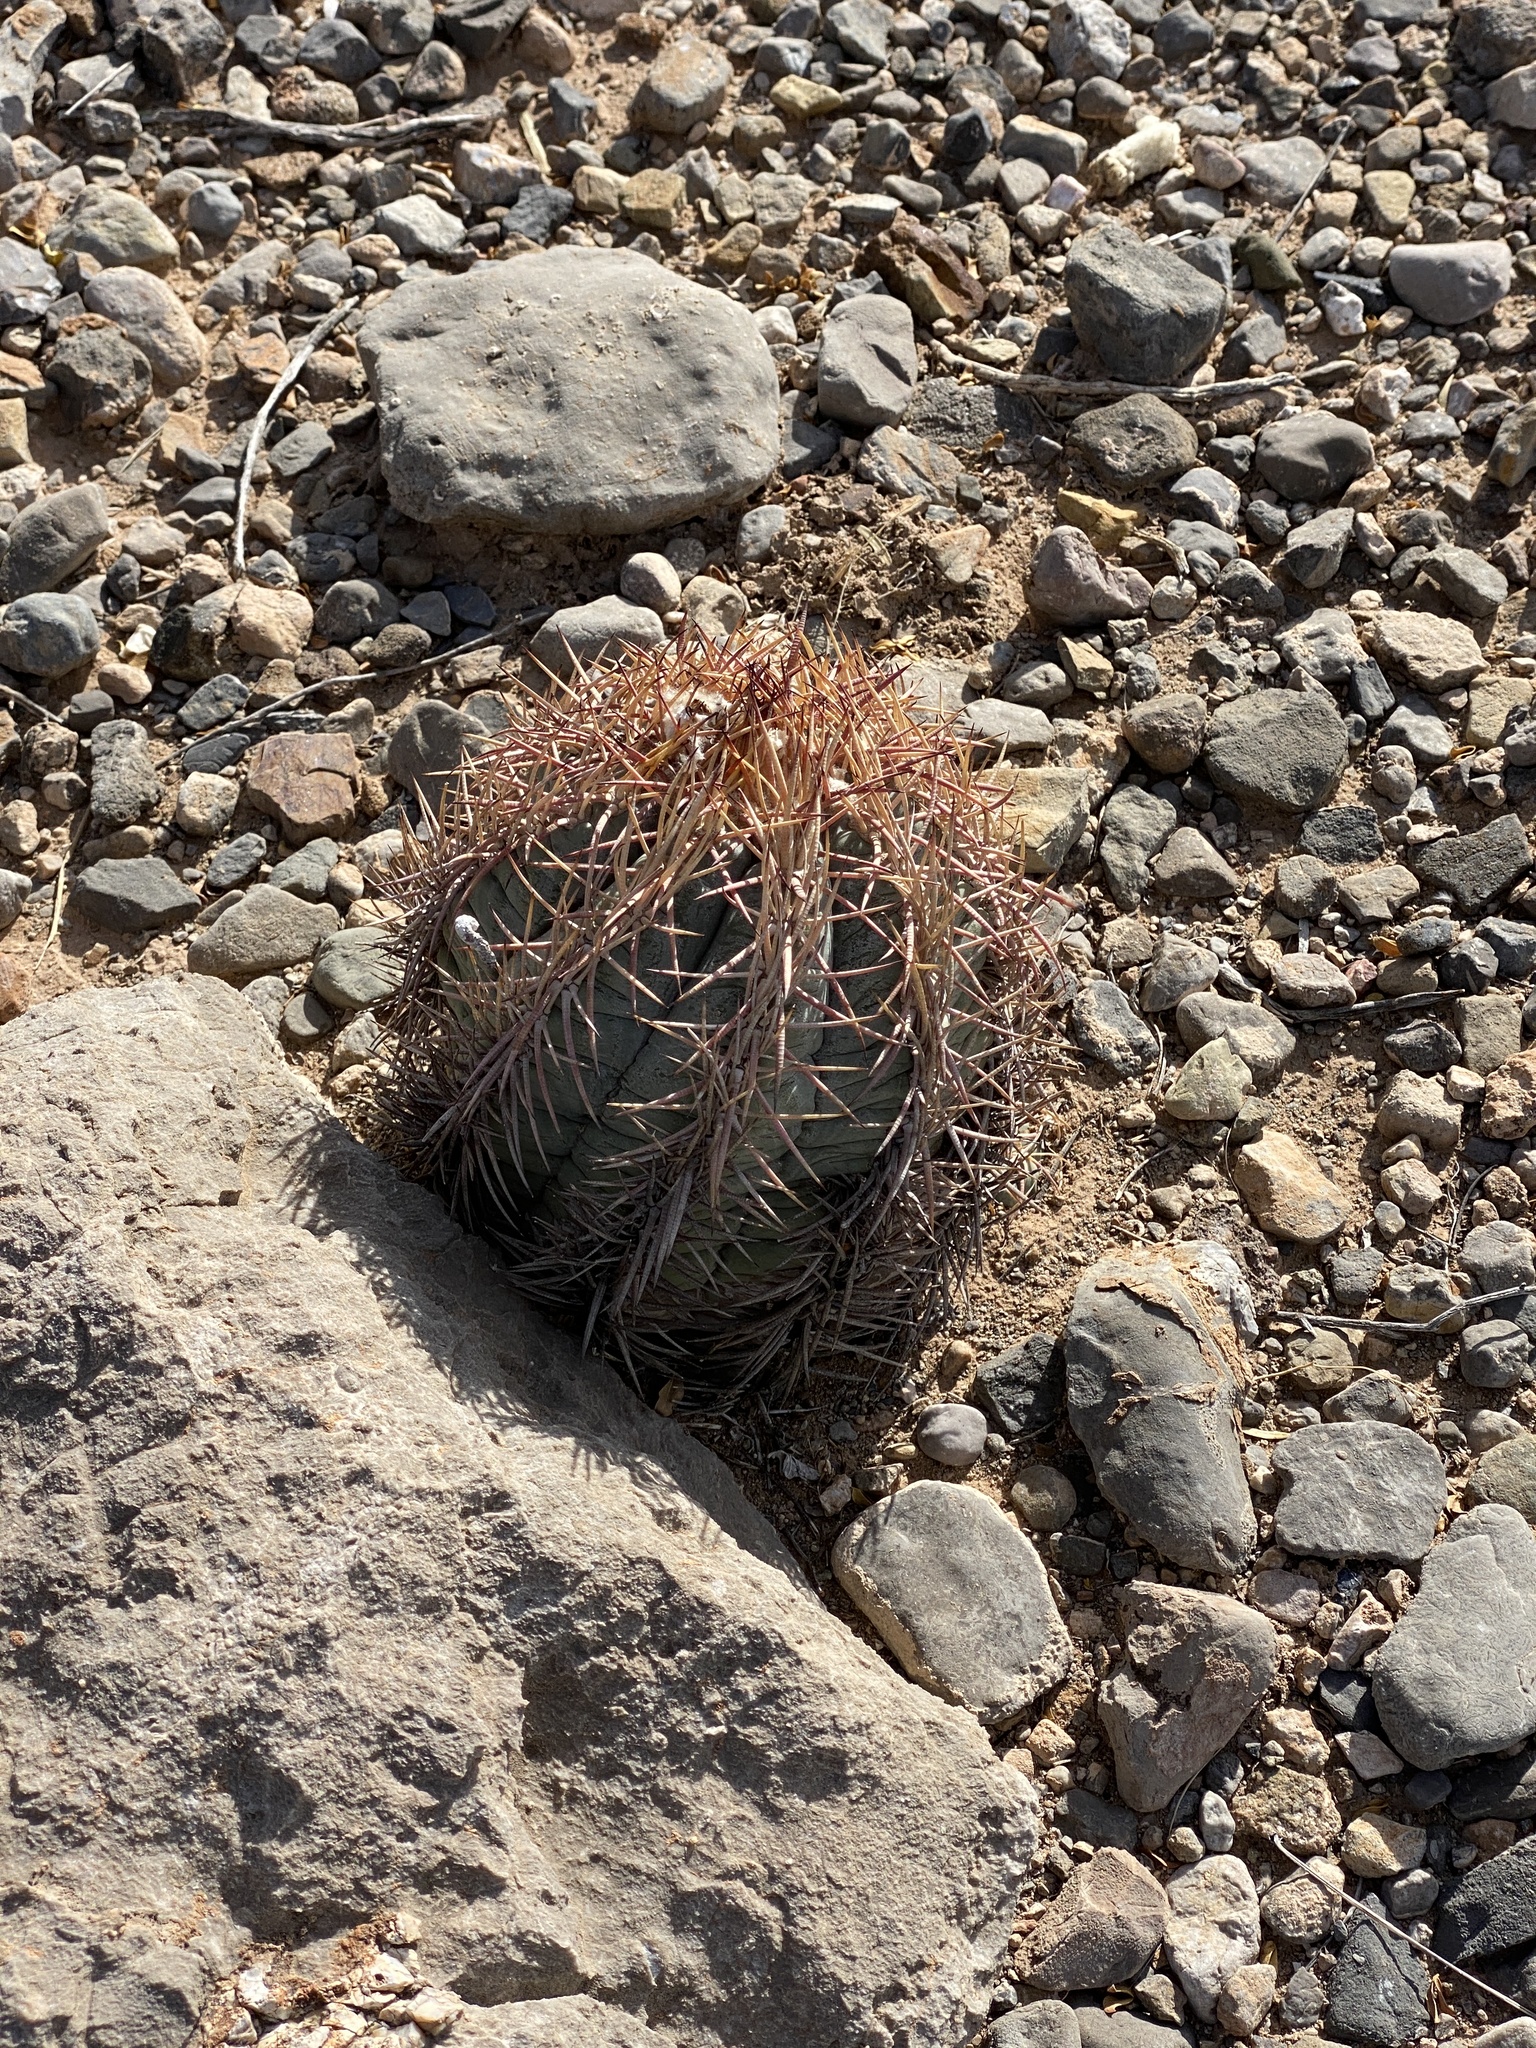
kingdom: Plantae
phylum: Tracheophyta
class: Magnoliopsida
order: Caryophyllales
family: Cactaceae
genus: Echinocactus
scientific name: Echinocactus horizonthalonius
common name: Devilshead
